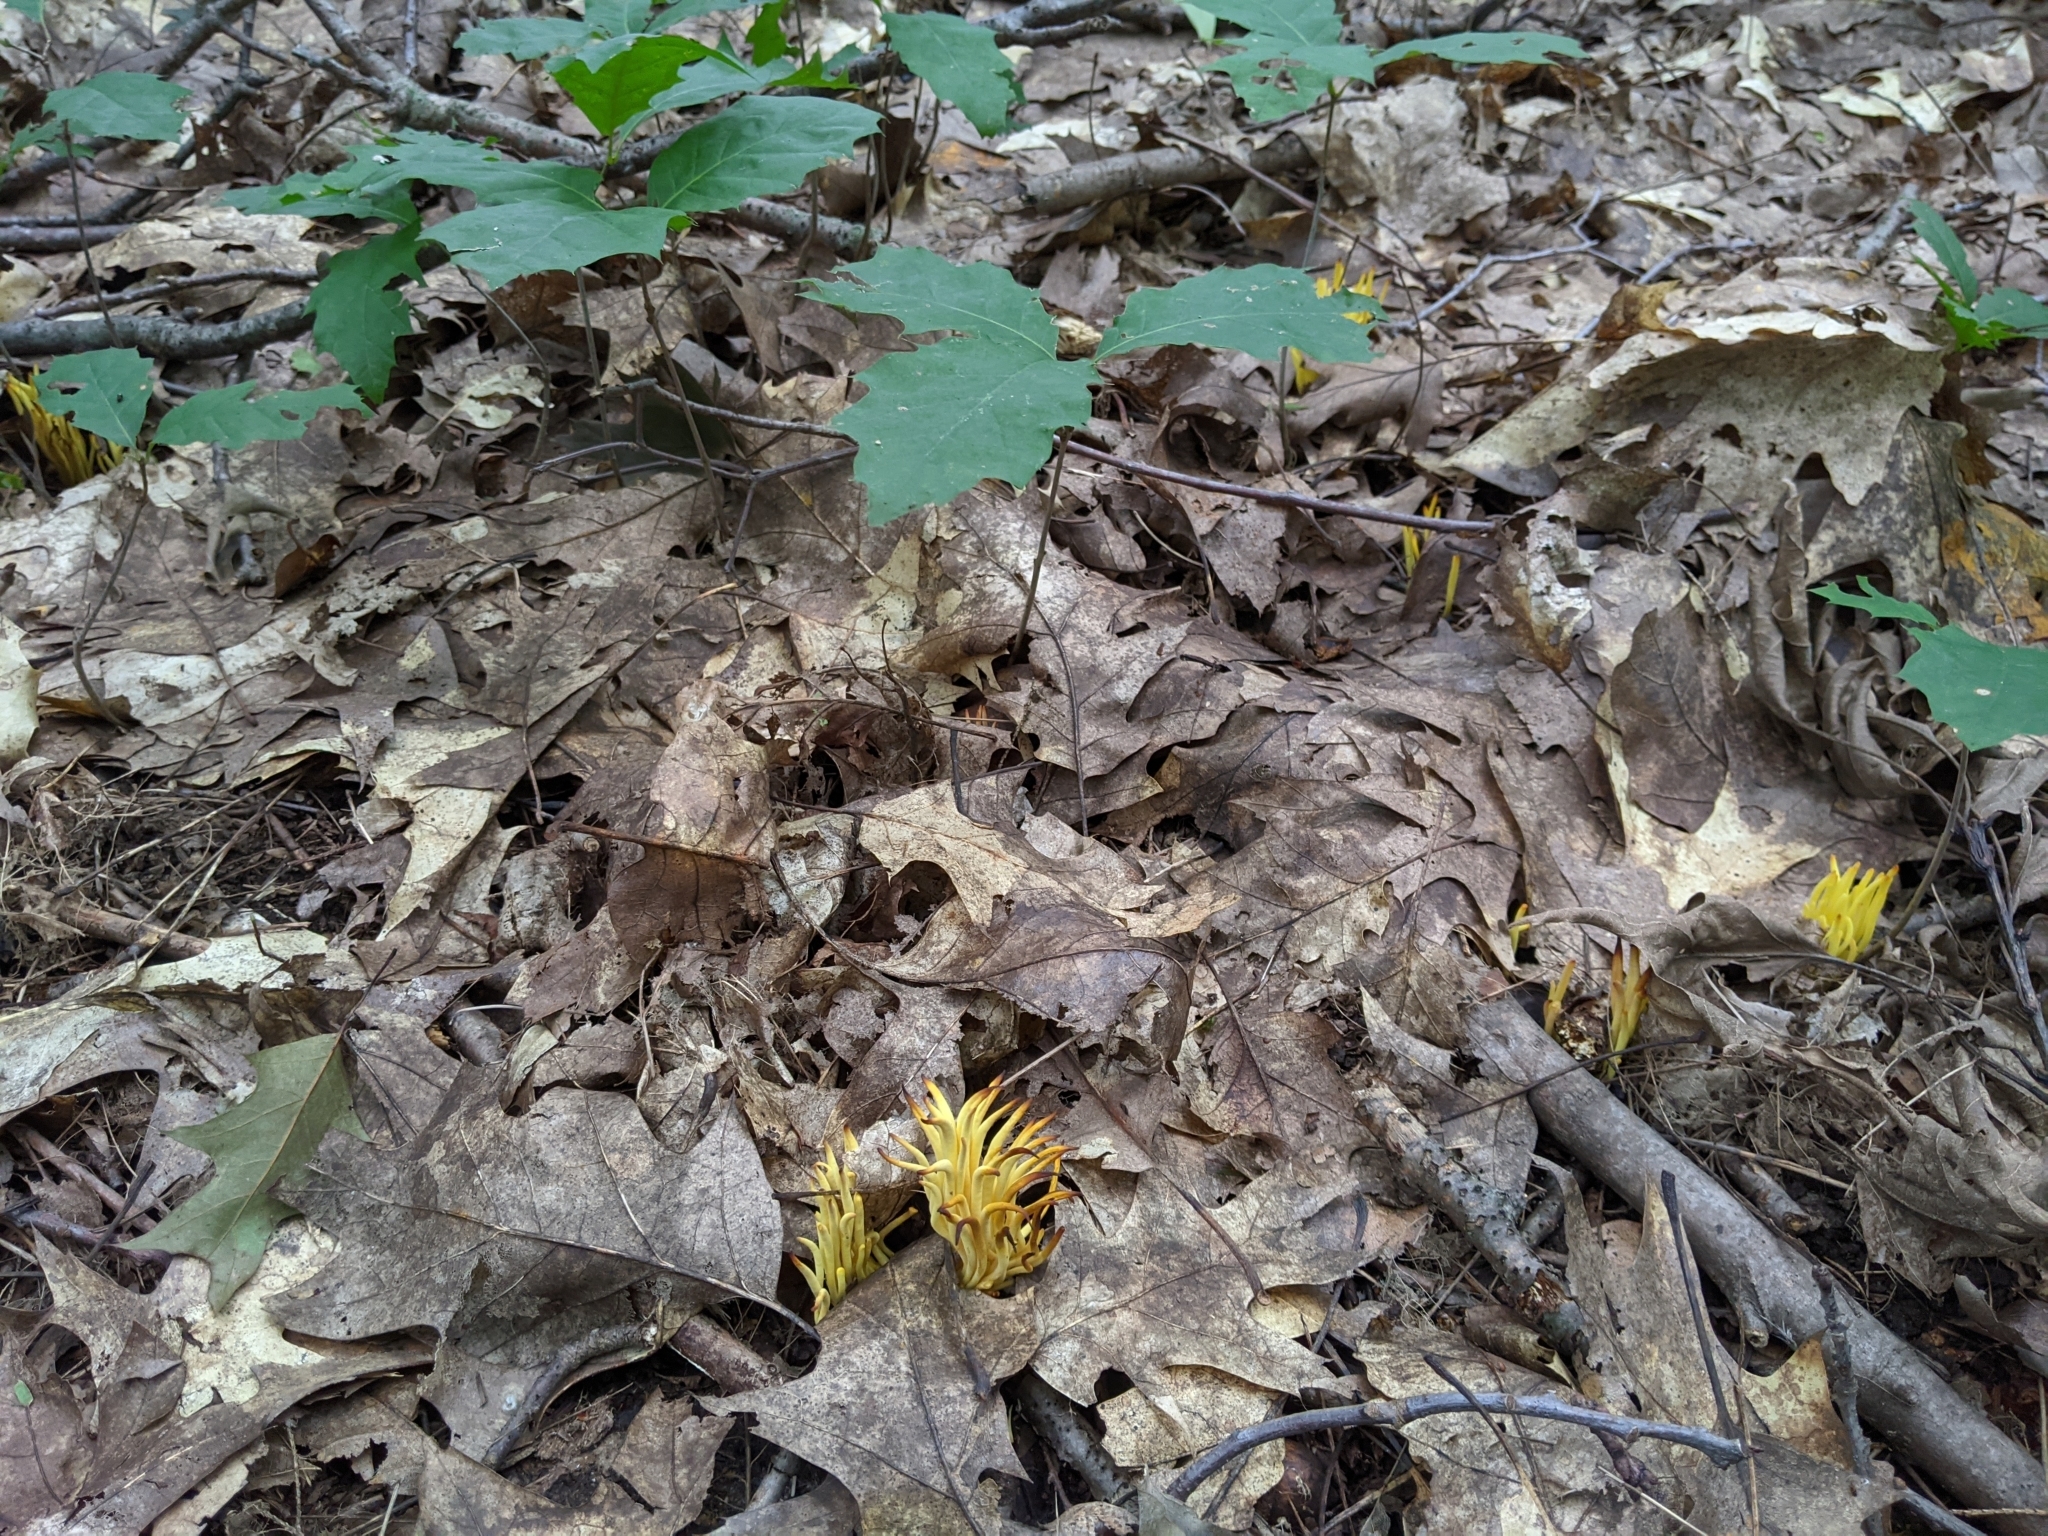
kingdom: Fungi
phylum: Basidiomycota
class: Agaricomycetes
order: Agaricales
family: Clavariaceae
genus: Clavulinopsis
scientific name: Clavulinopsis fusiformis
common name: Golden spindles
